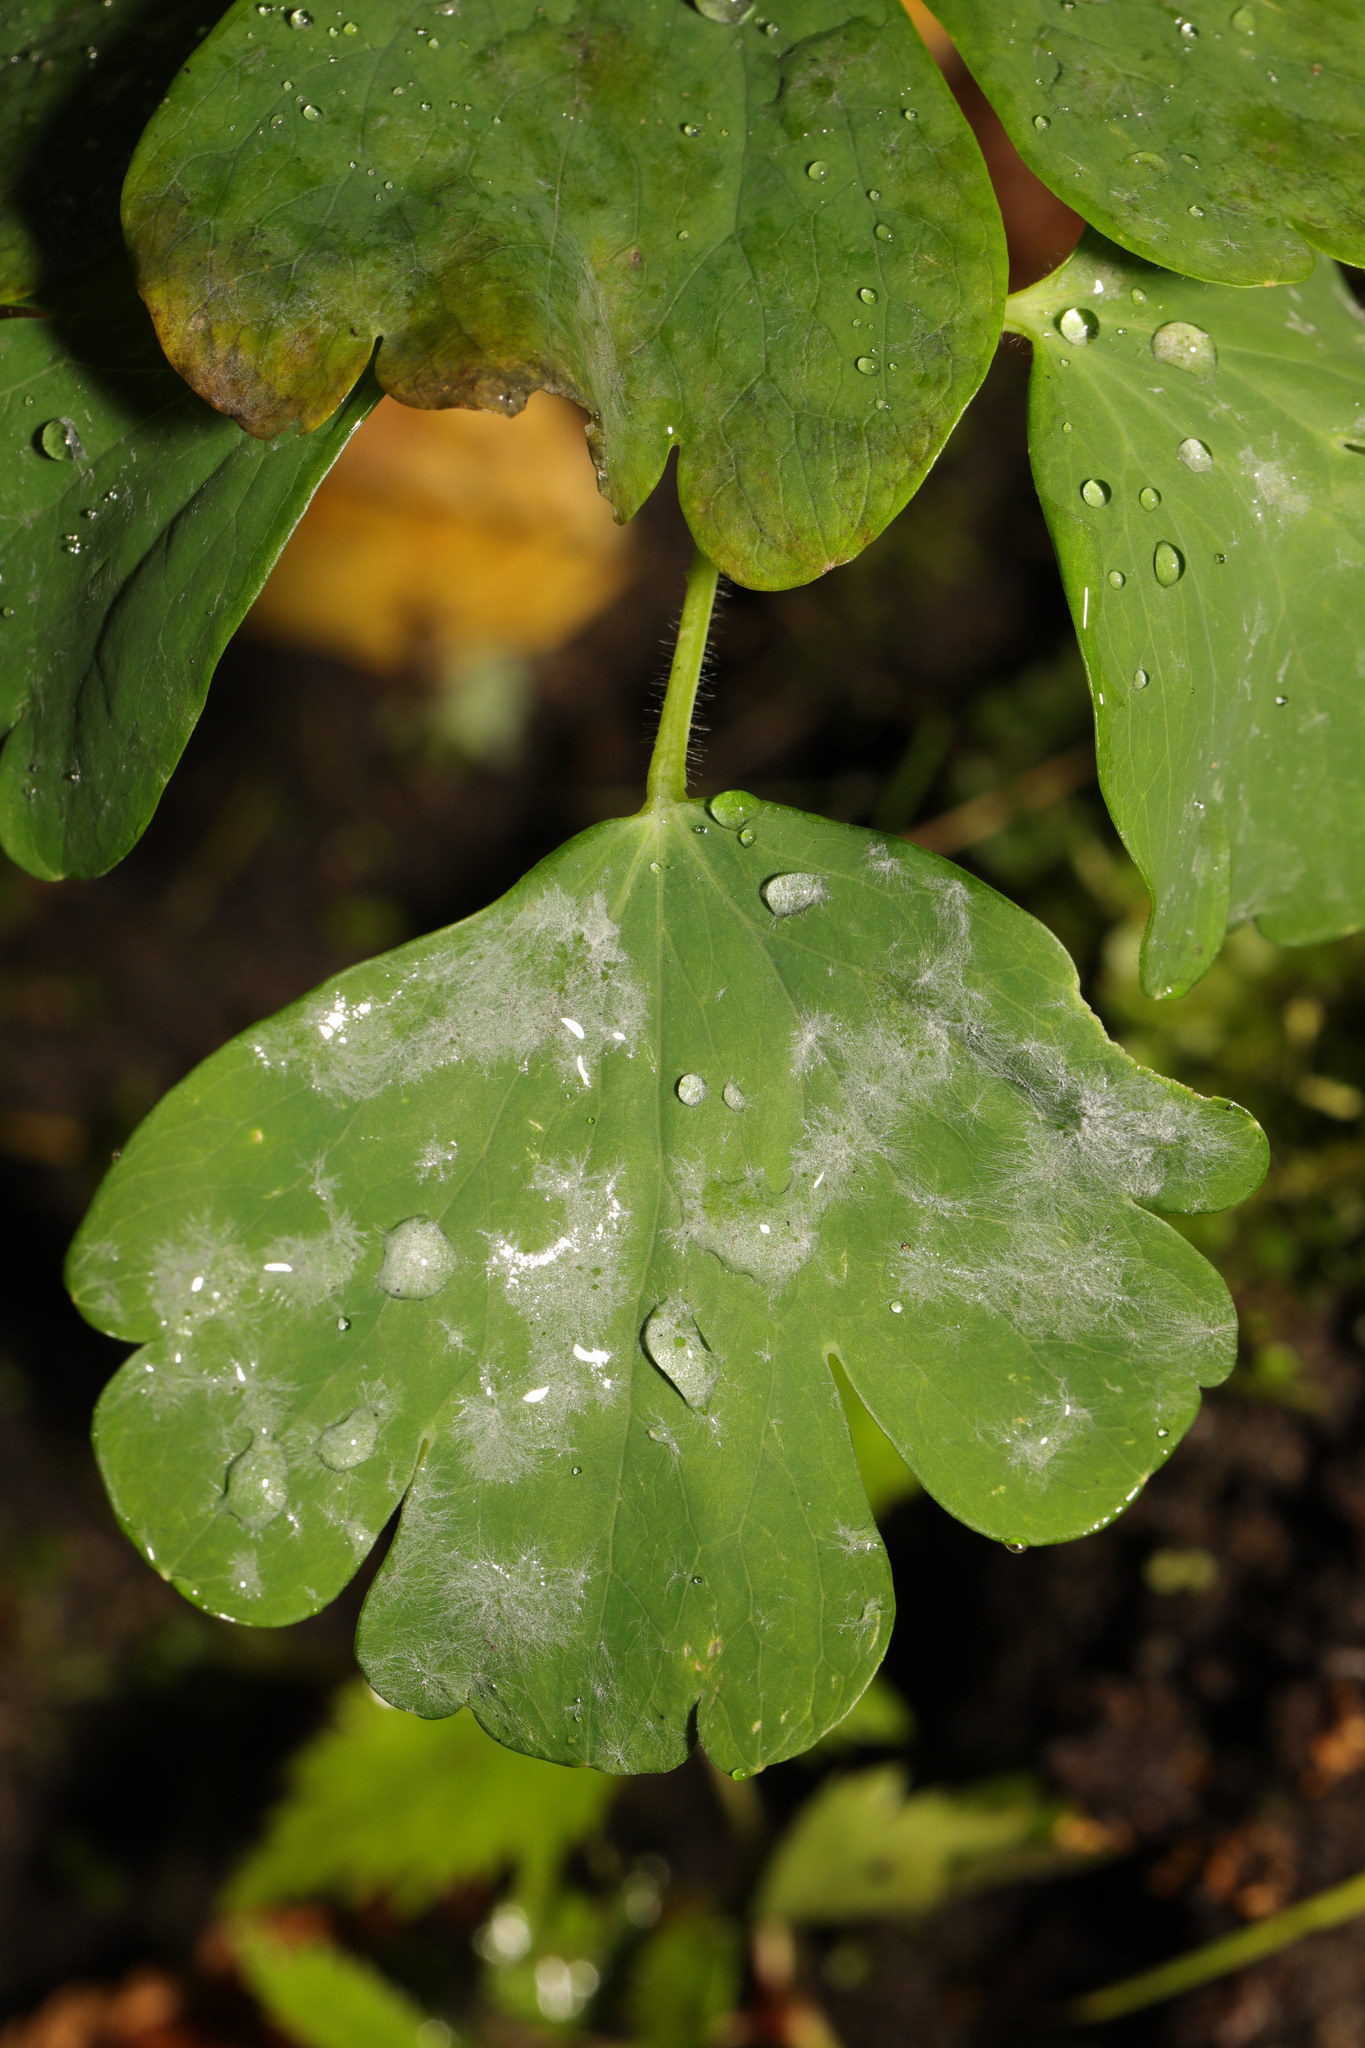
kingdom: Fungi
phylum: Ascomycota
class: Leotiomycetes
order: Helotiales
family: Erysiphaceae
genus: Erysiphe
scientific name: Erysiphe aquilegiae
